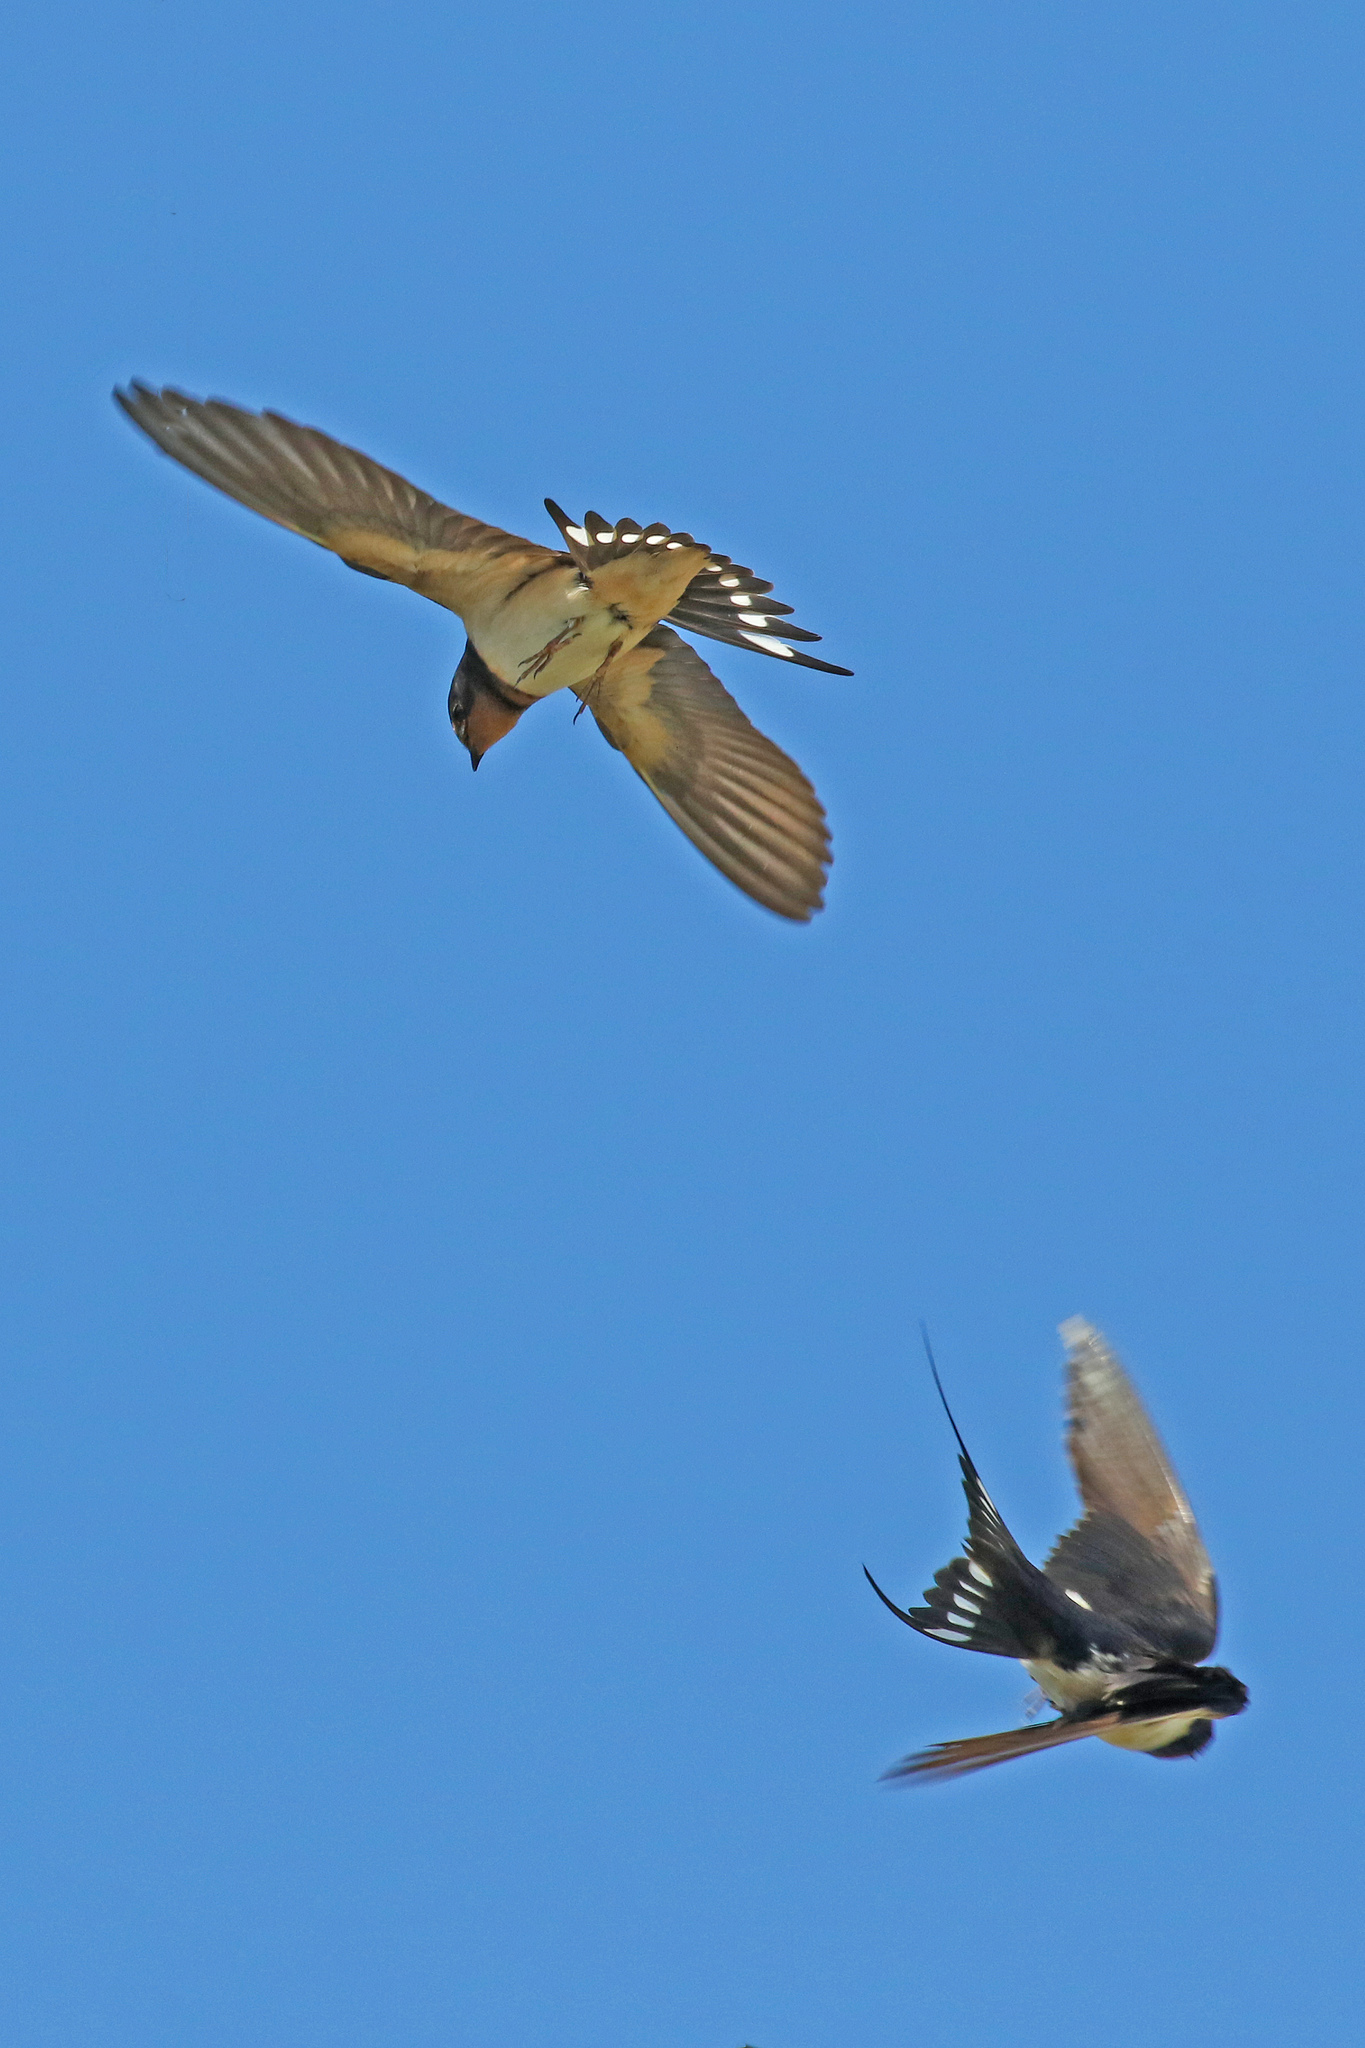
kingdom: Animalia
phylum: Chordata
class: Aves
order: Passeriformes
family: Hirundinidae
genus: Hirundo
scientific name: Hirundo rustica
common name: Barn swallow
